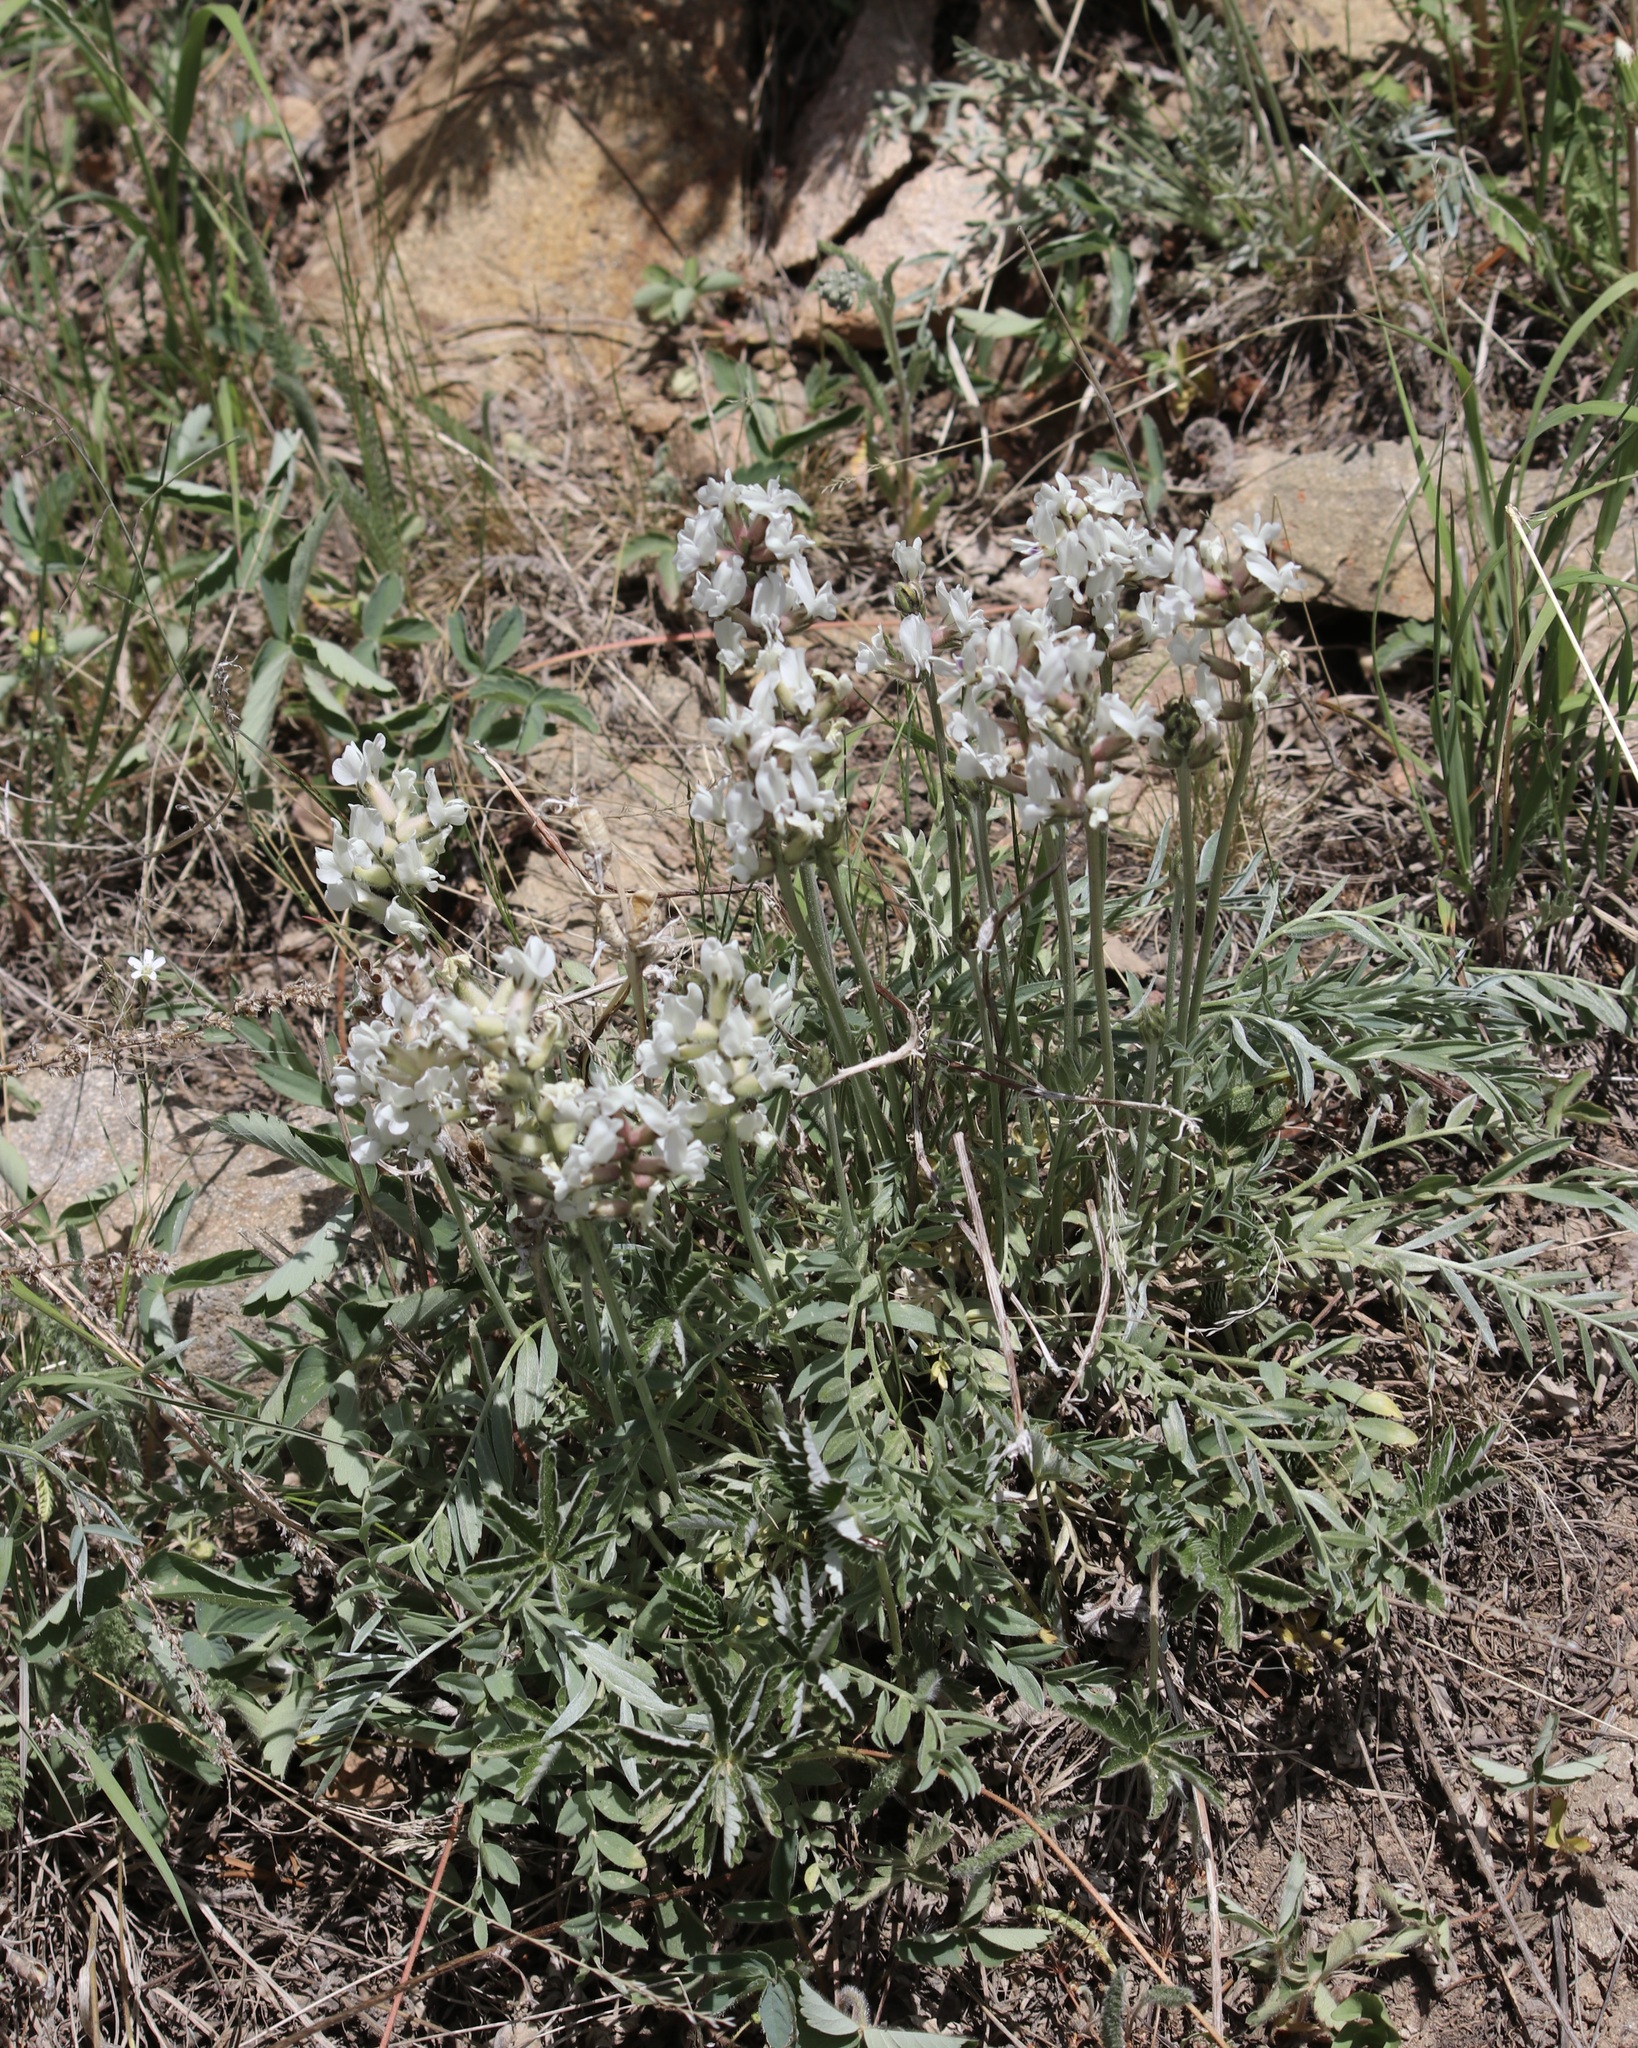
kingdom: Plantae
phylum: Tracheophyta
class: Magnoliopsida
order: Fabales
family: Fabaceae
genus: Oxytropis
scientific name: Oxytropis sericea
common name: Silky locoweed
